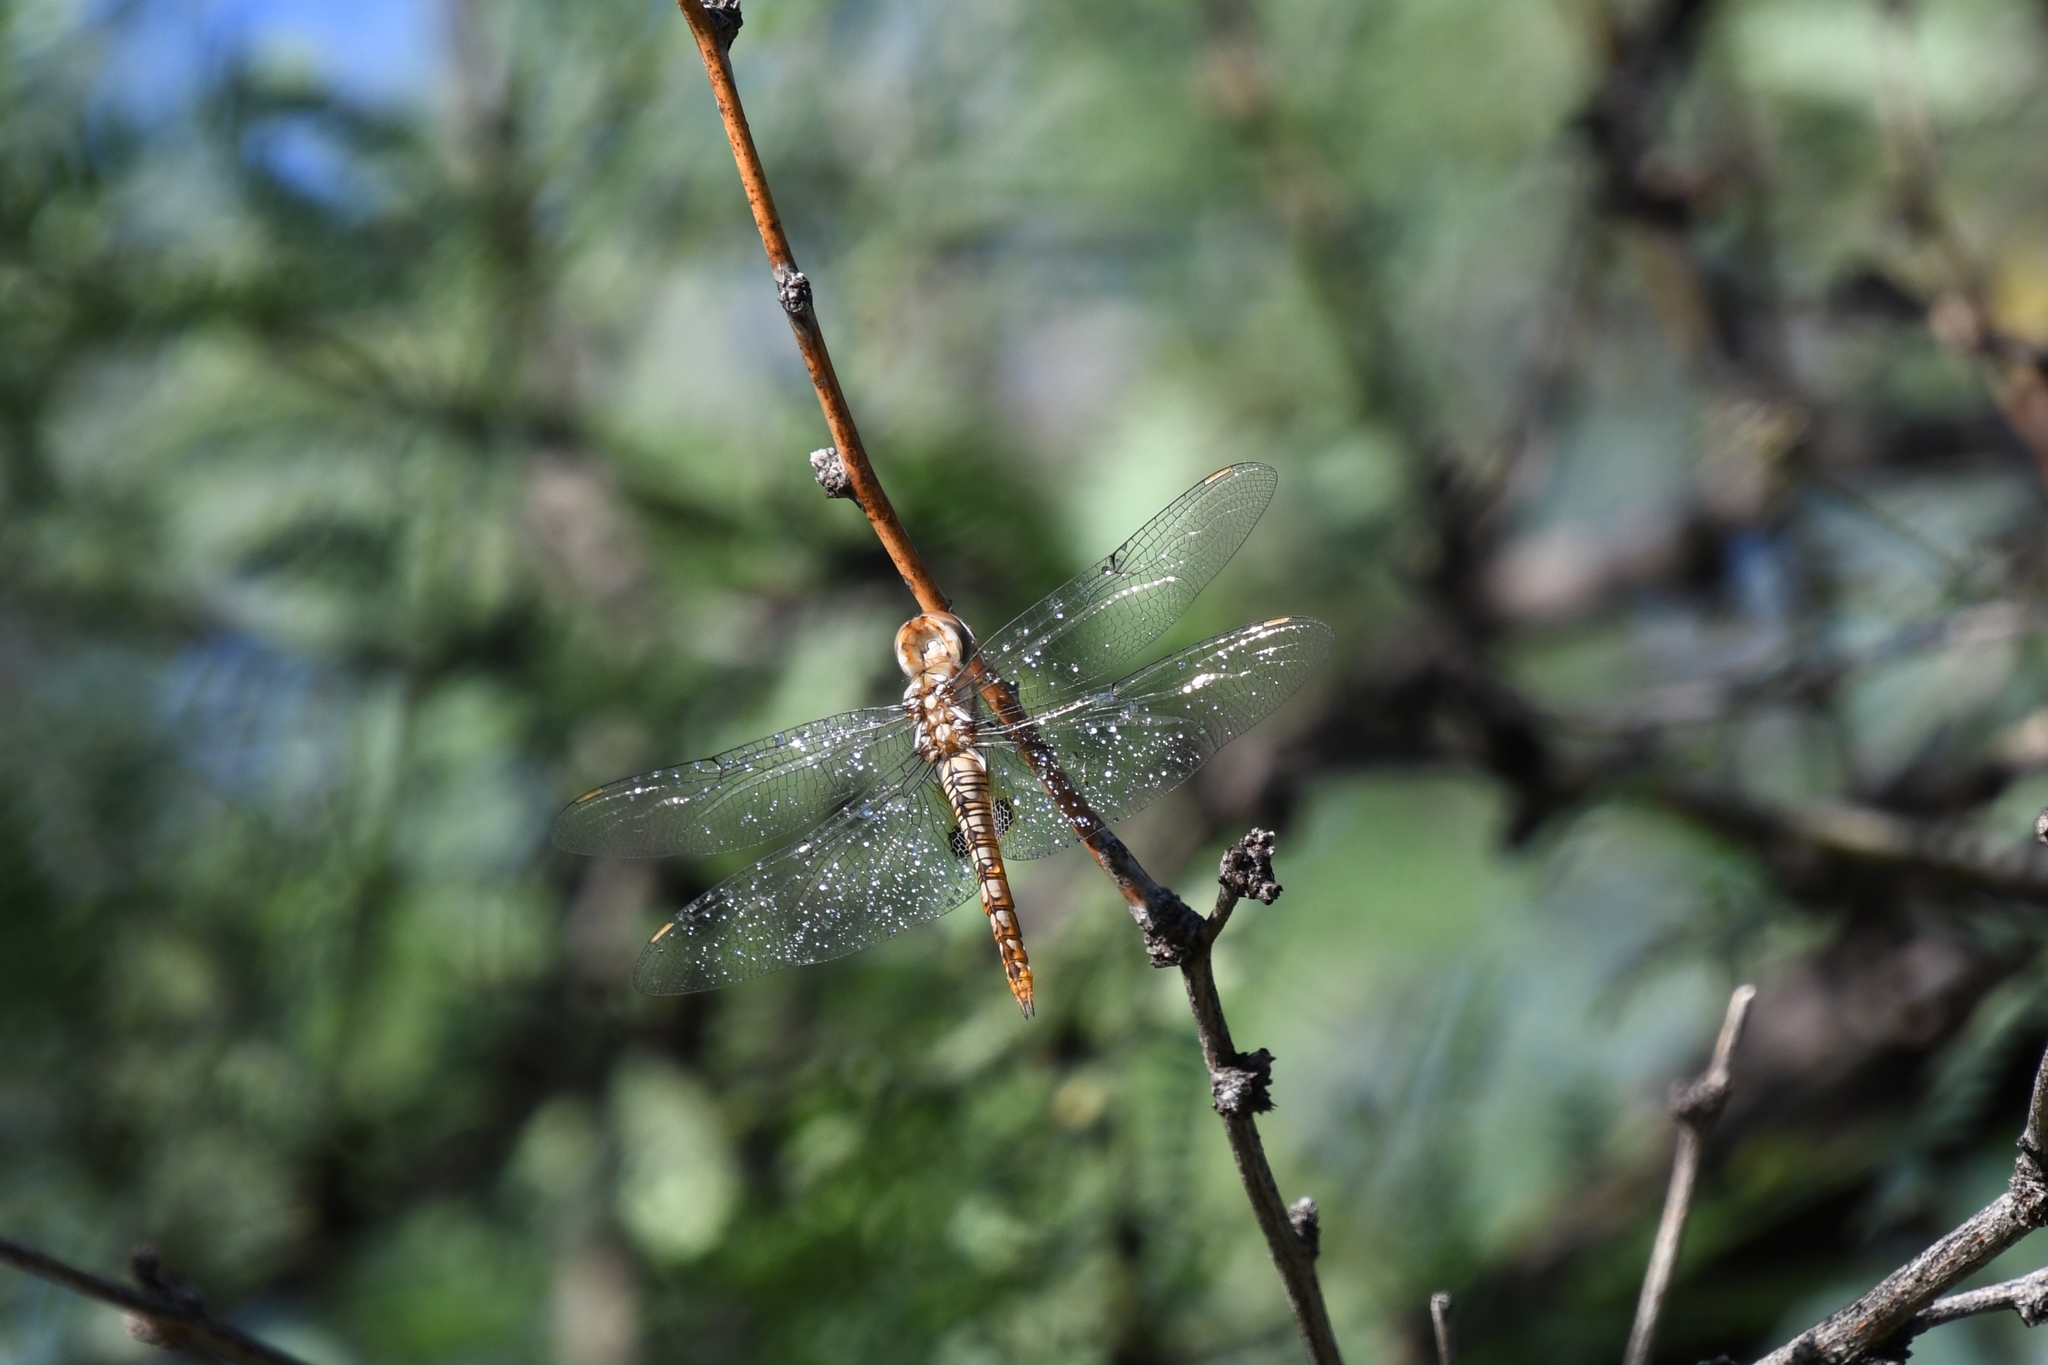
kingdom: Animalia
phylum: Arthropoda
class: Insecta
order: Odonata
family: Libellulidae
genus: Pantala
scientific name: Pantala hymenaea
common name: Spot-winged glider
